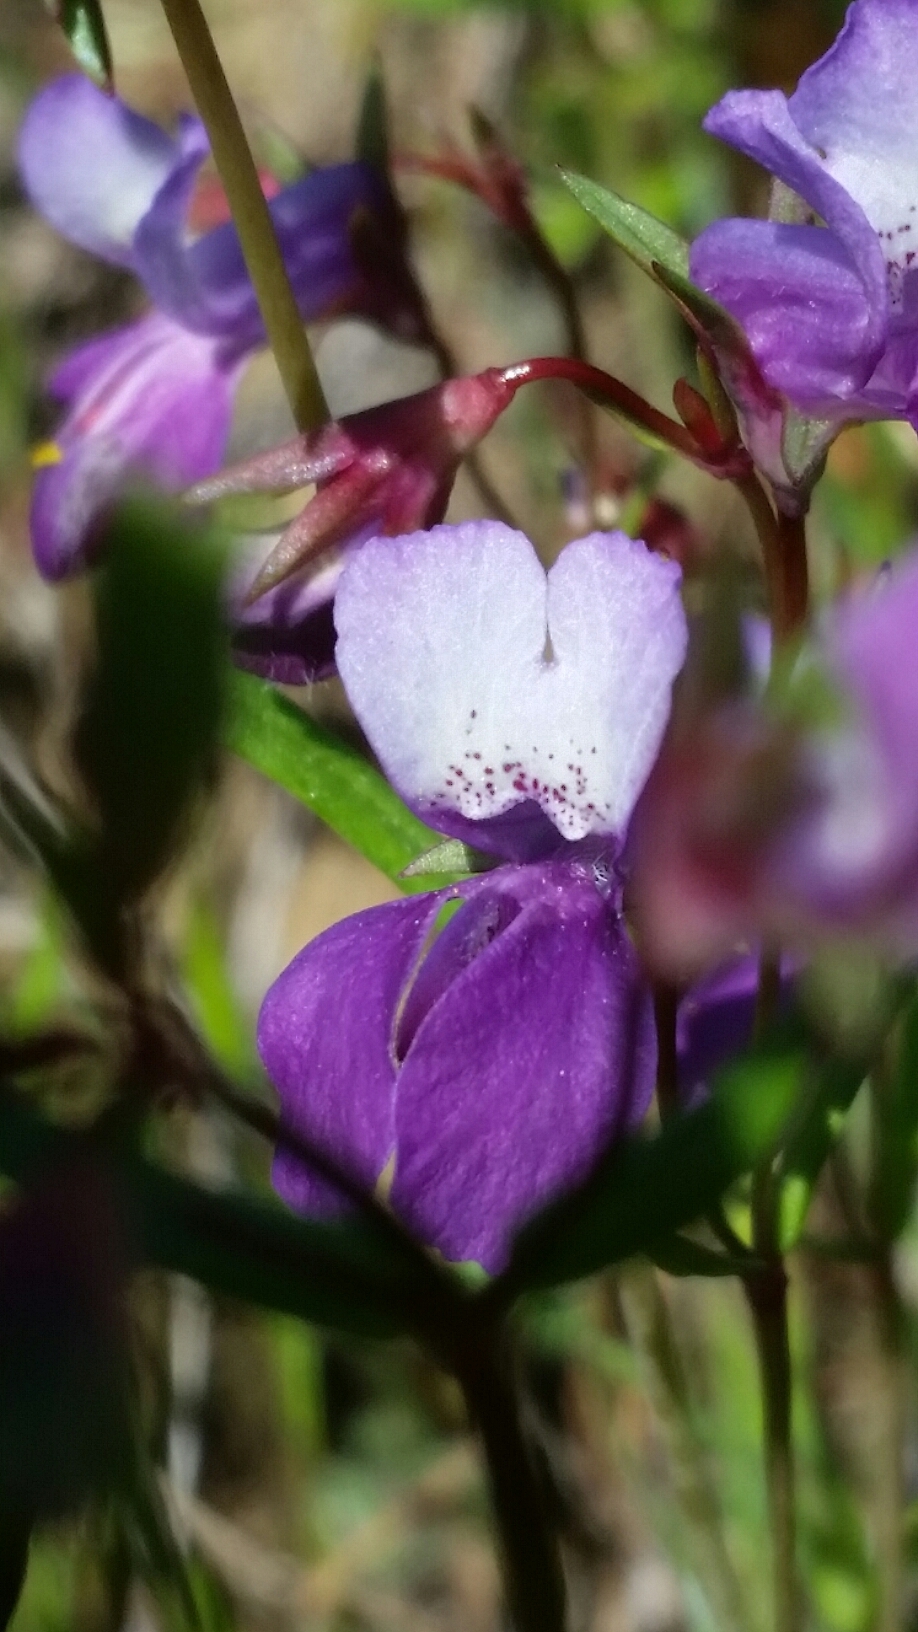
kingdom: Plantae
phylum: Tracheophyta
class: Magnoliopsida
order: Lamiales
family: Plantaginaceae
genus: Collinsia
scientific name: Collinsia sparsiflora
